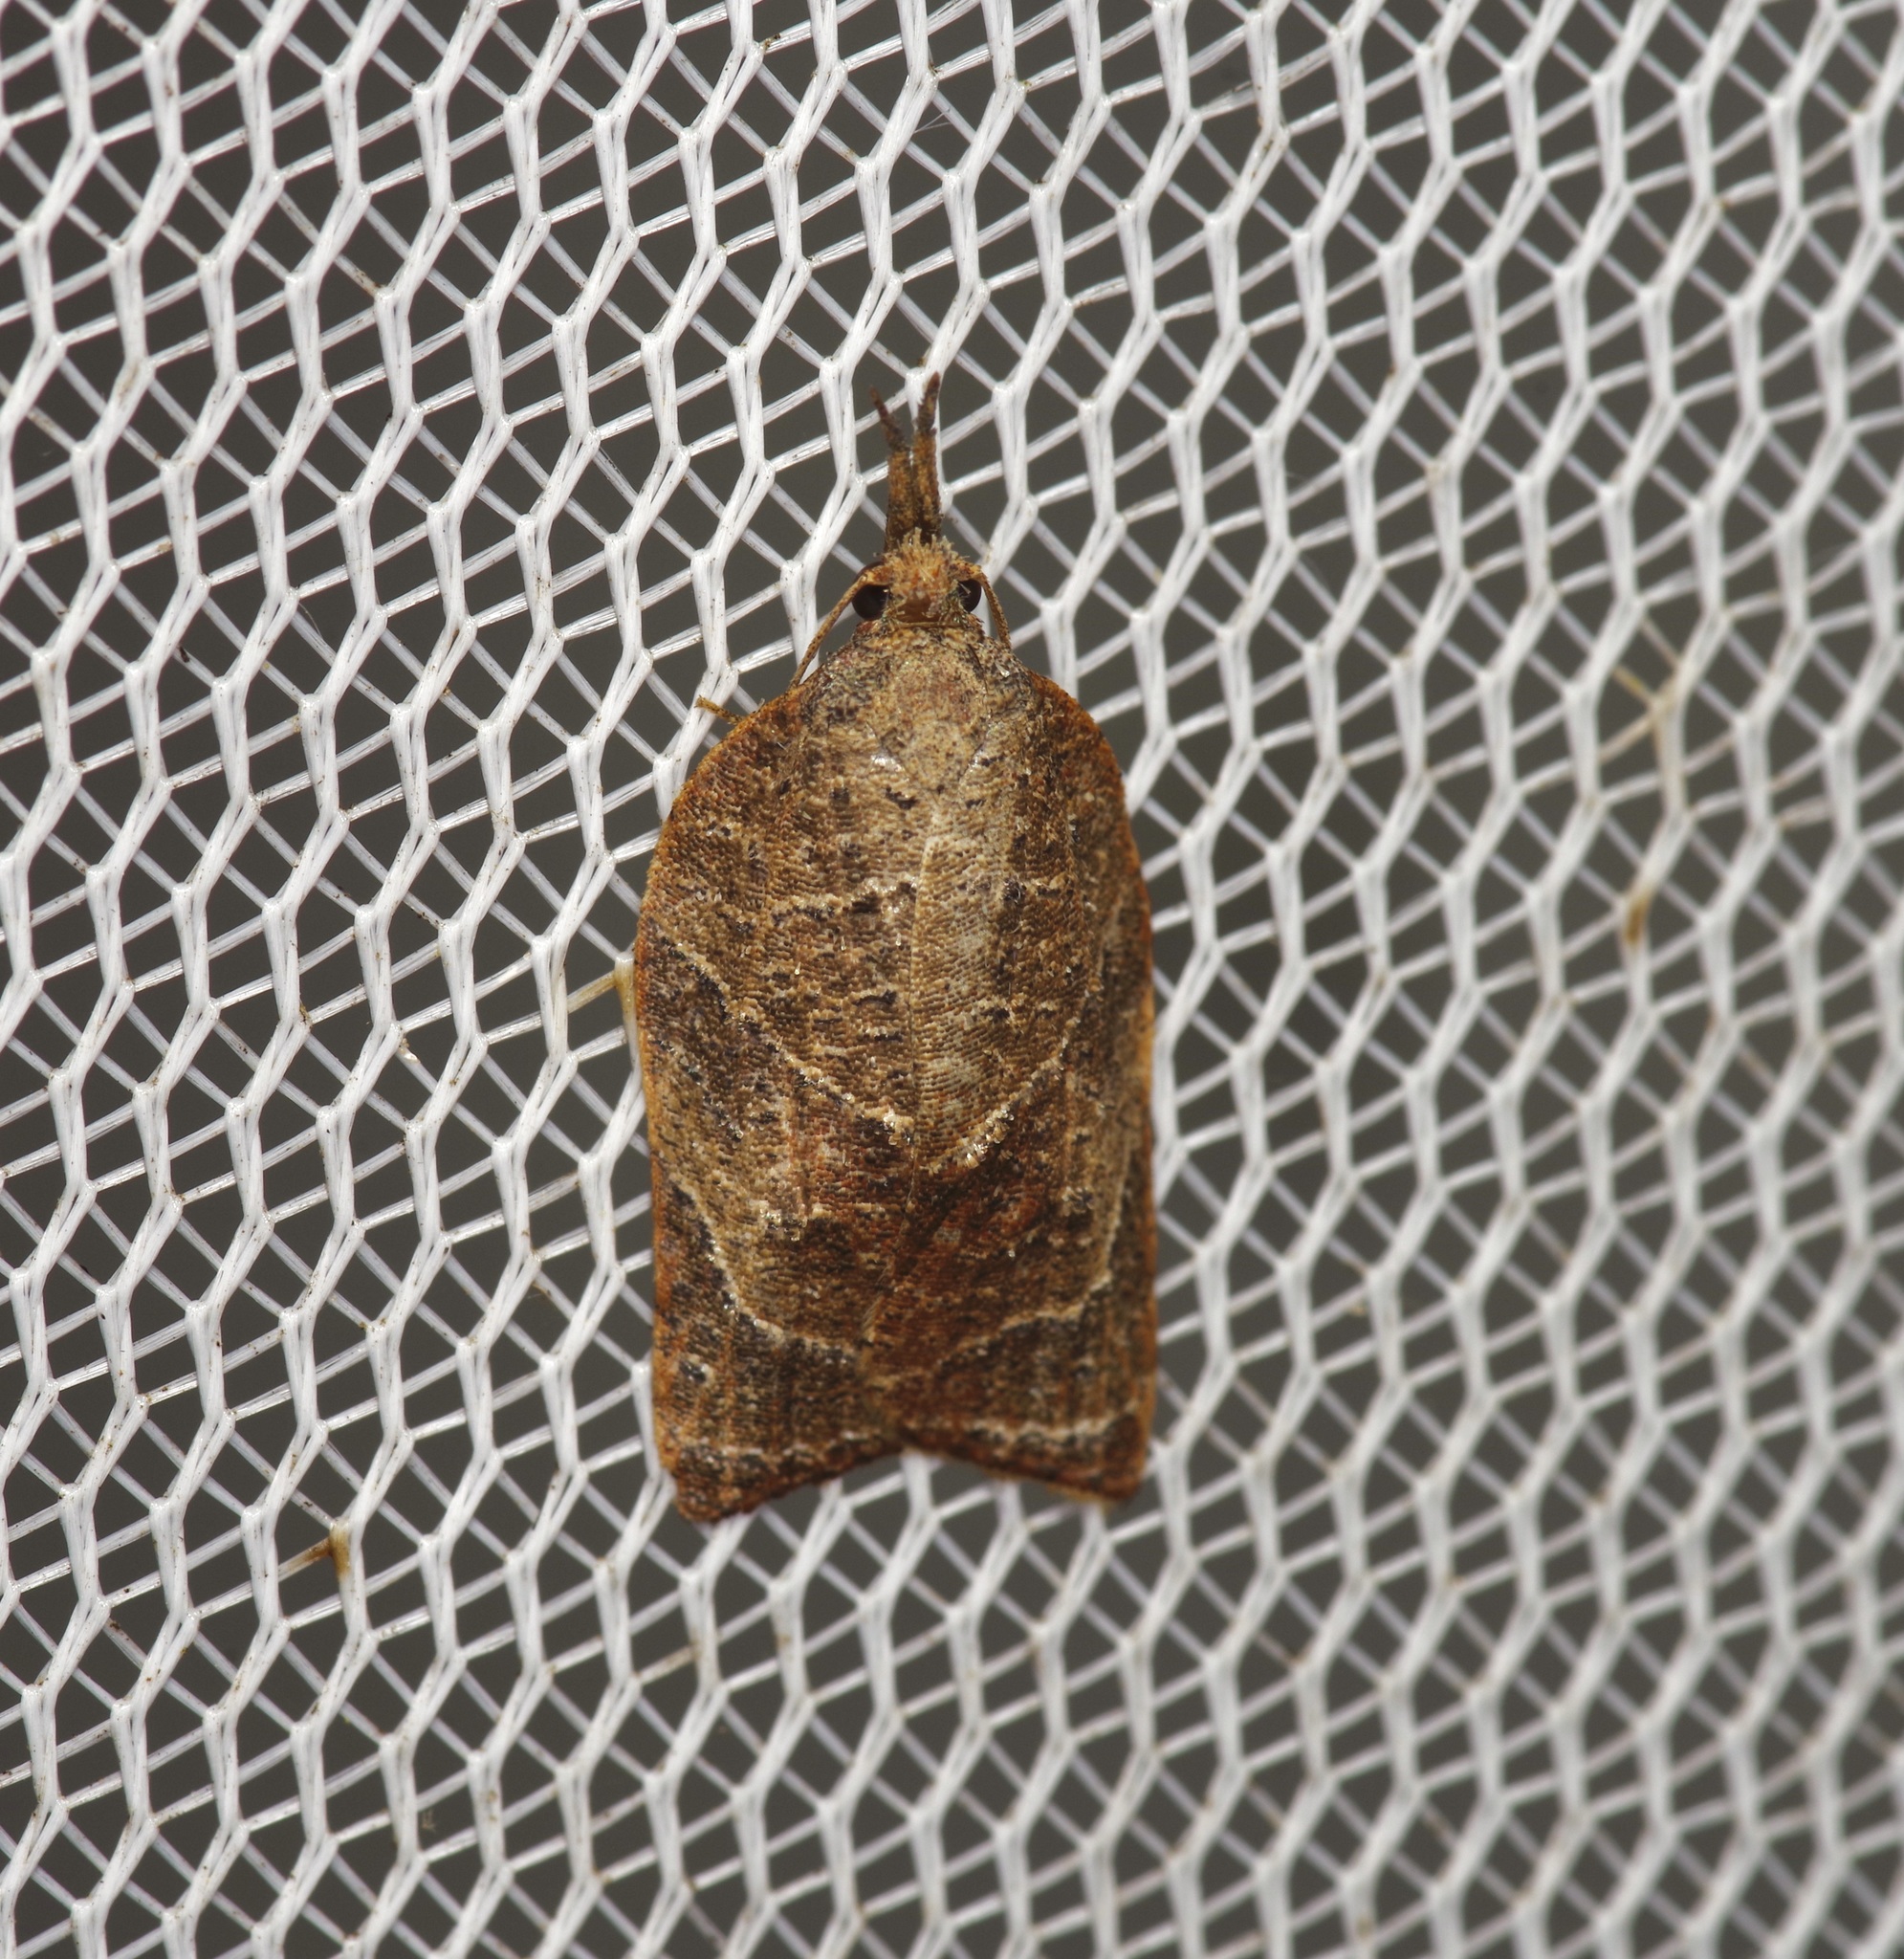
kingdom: Animalia
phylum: Arthropoda
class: Insecta
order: Lepidoptera
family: Tortricidae
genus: Platynota
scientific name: Platynota rostrana
